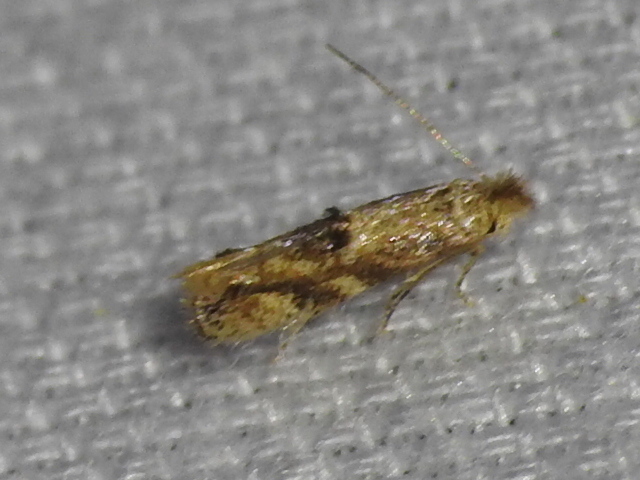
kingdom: Animalia
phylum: Arthropoda
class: Insecta
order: Lepidoptera
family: Bucculatricidae
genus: Bucculatrix
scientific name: Bucculatrix coronatella
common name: Crowned bucculatrix moth
